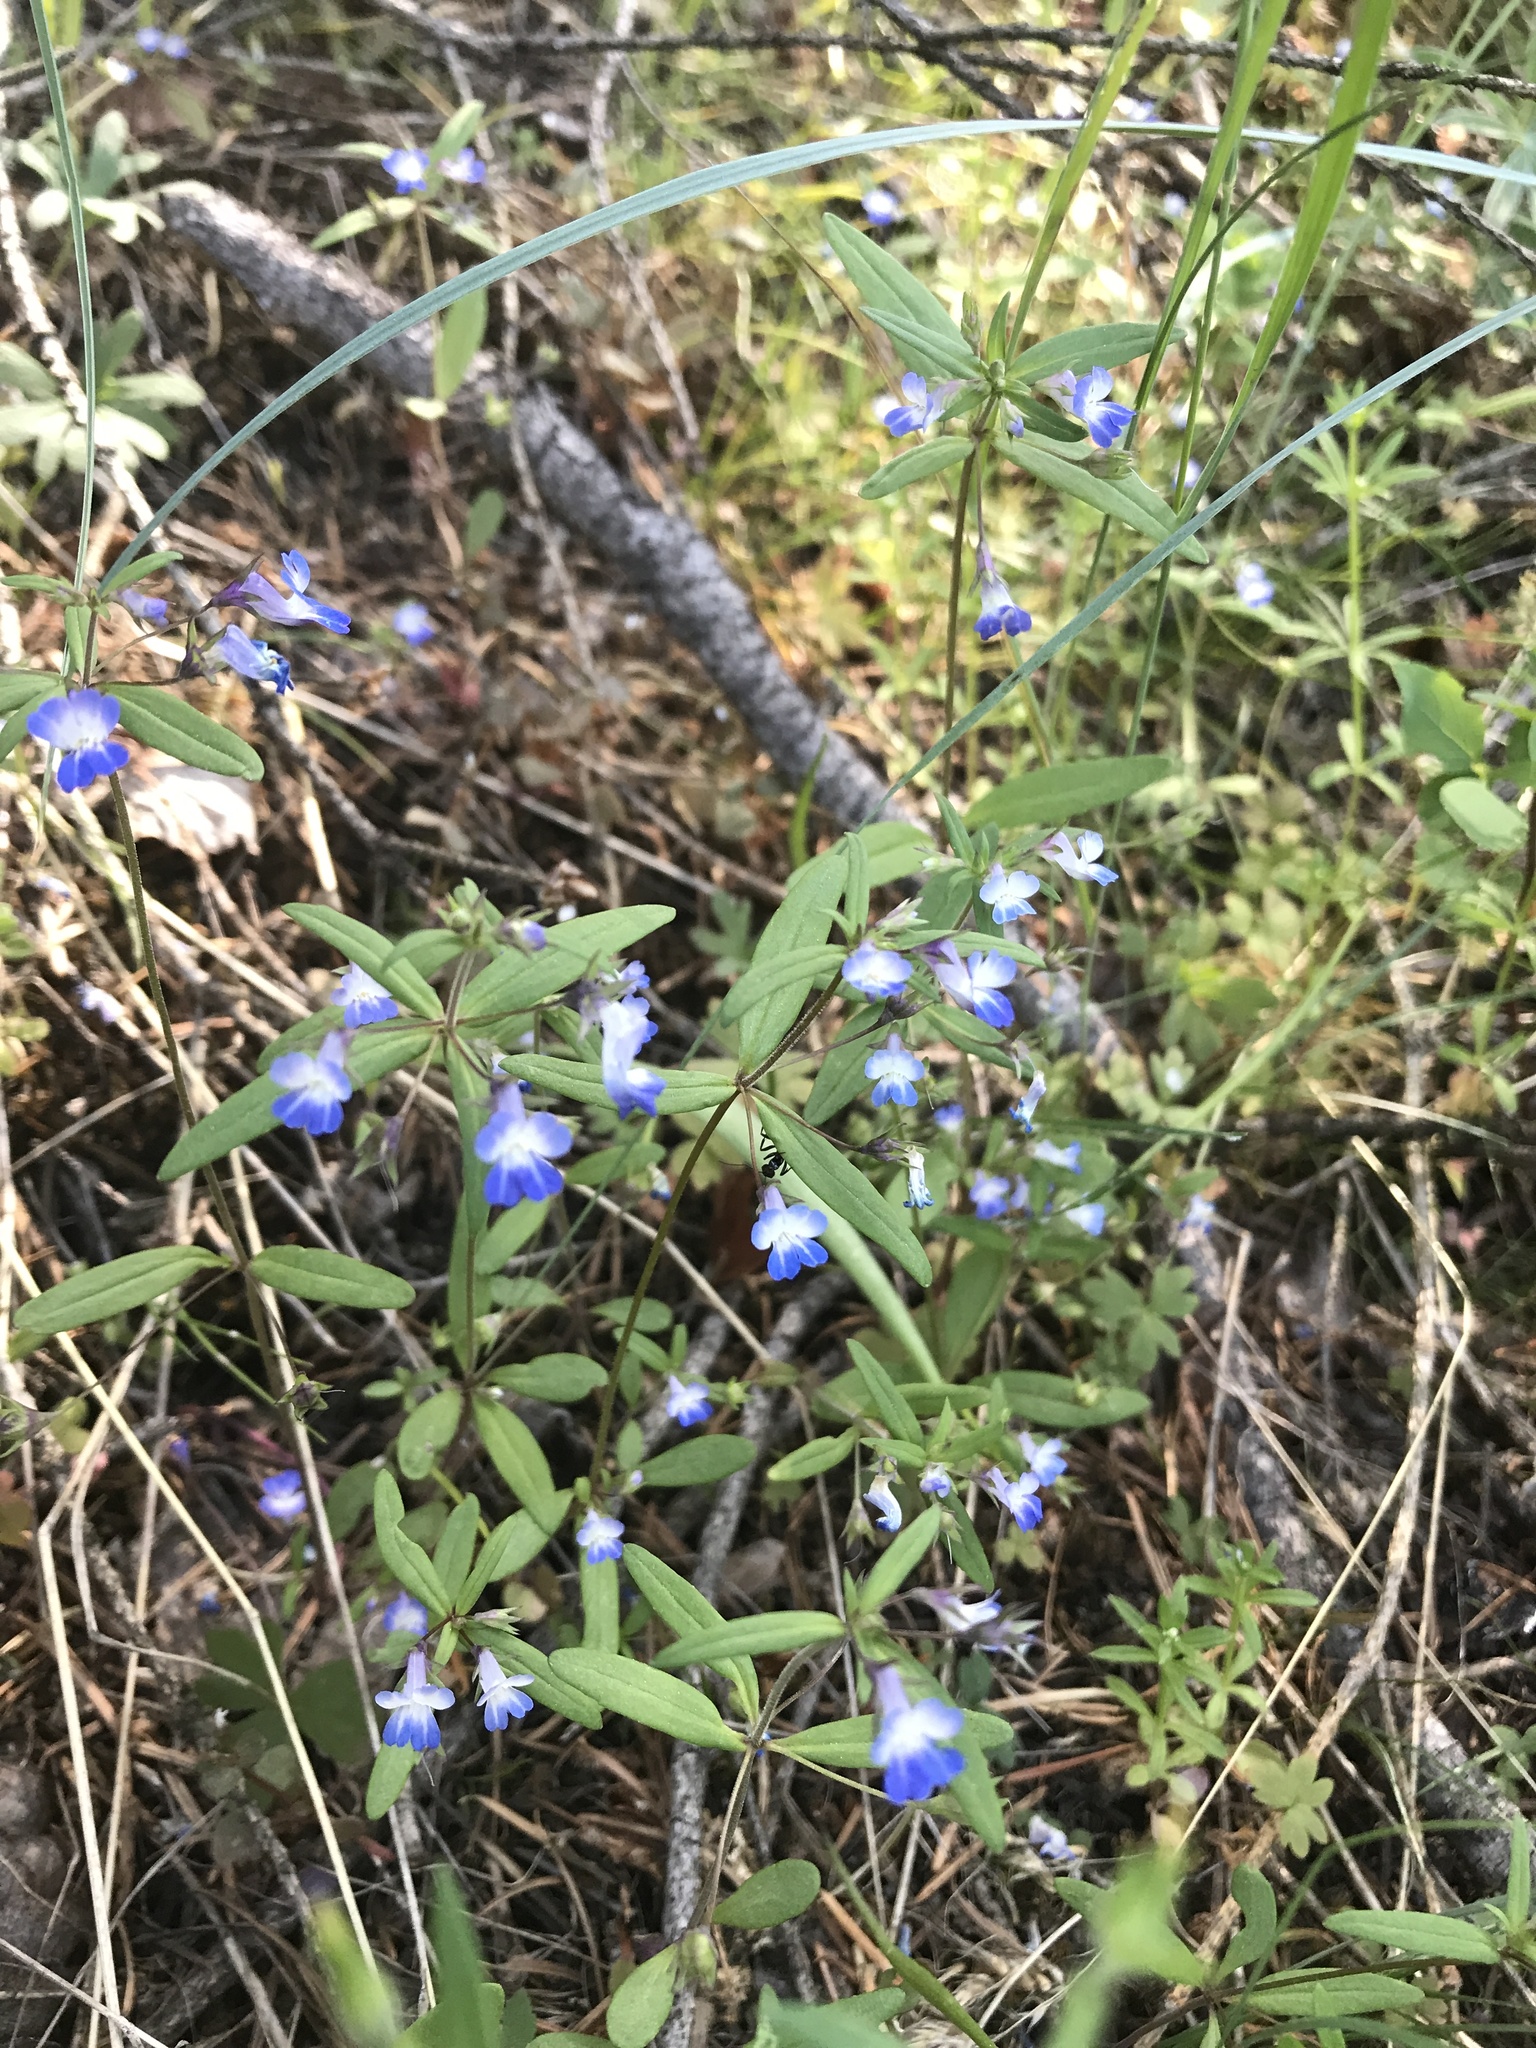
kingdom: Plantae
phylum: Tracheophyta
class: Magnoliopsida
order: Lamiales
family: Plantaginaceae
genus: Collinsia
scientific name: Collinsia parviflora
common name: Blue-lips
